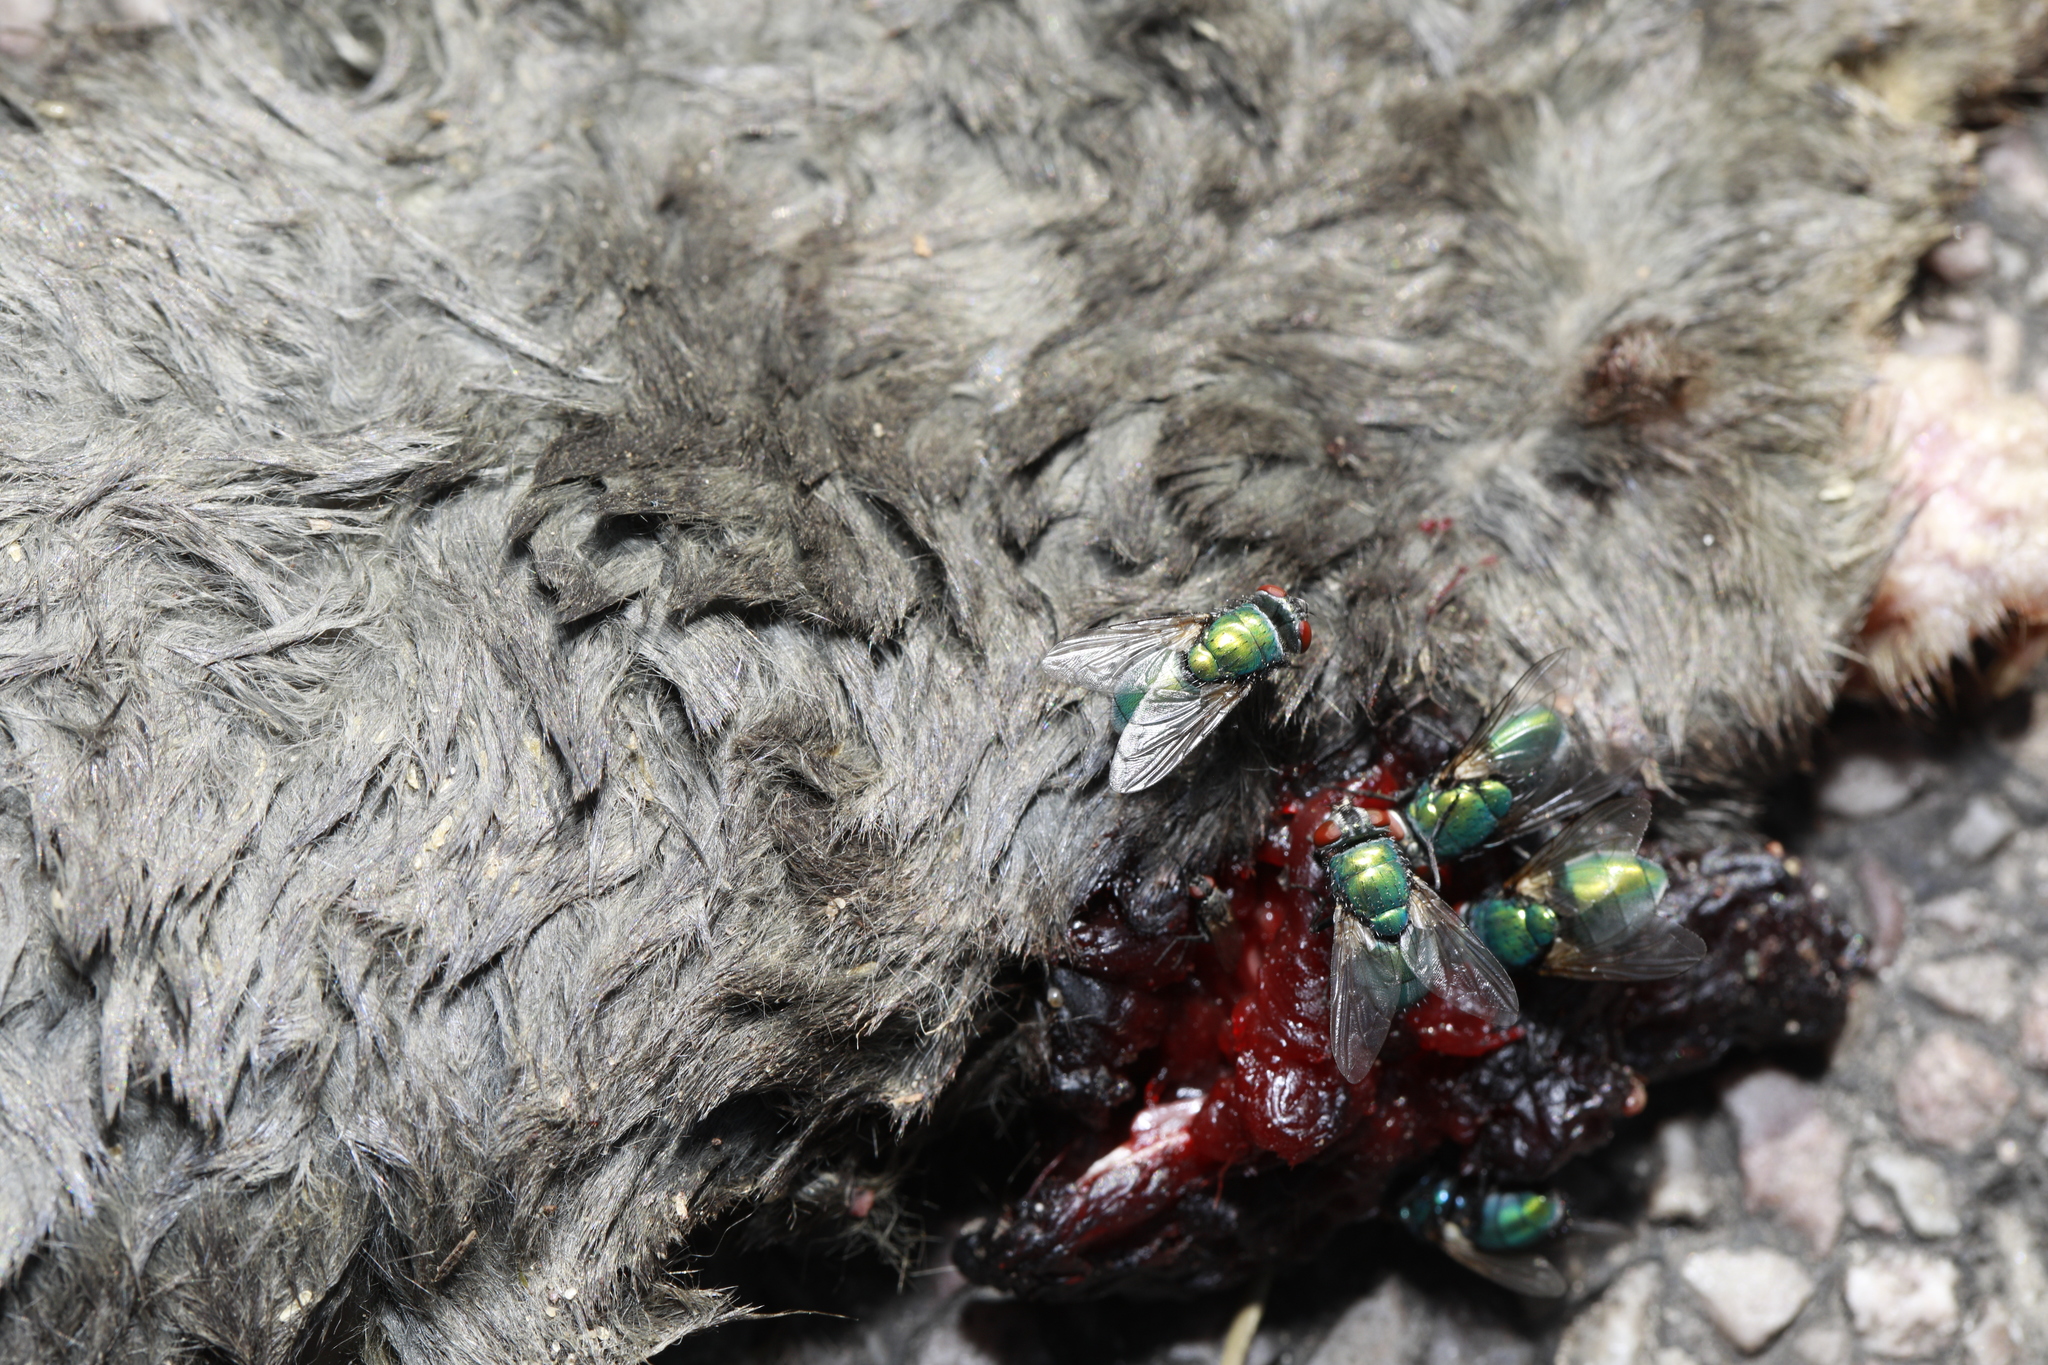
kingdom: Animalia
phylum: Arthropoda
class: Insecta
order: Diptera
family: Calliphoridae
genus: Lucilia
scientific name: Lucilia
